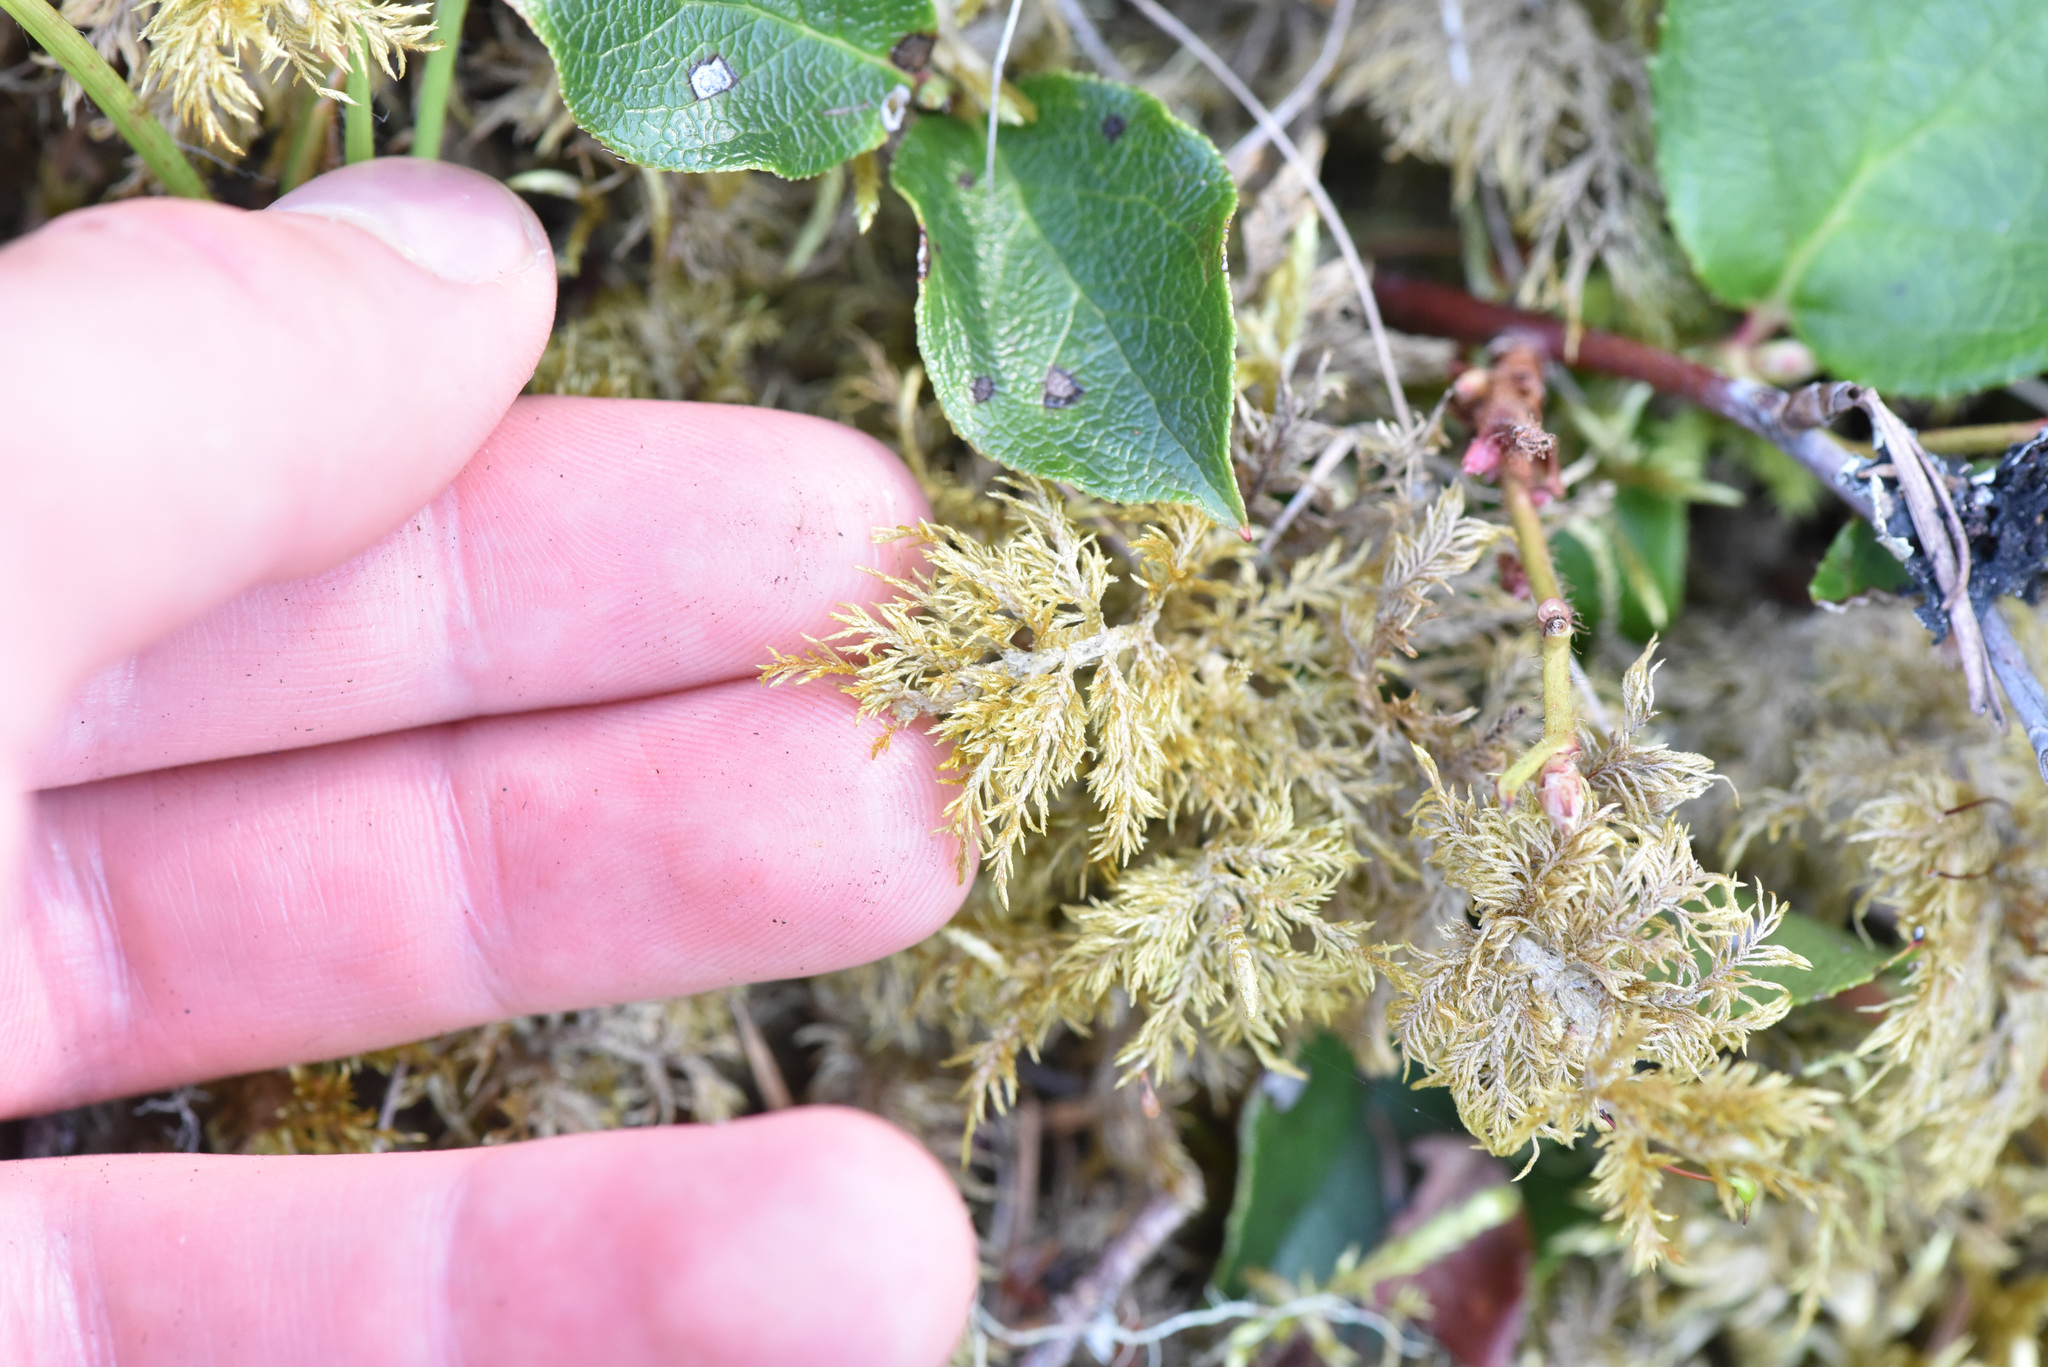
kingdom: Plantae
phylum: Bryophyta
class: Bryopsida
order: Hypnales
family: Hylocomiaceae
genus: Hylocomium
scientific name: Hylocomium splendens
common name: Stairstep moss
